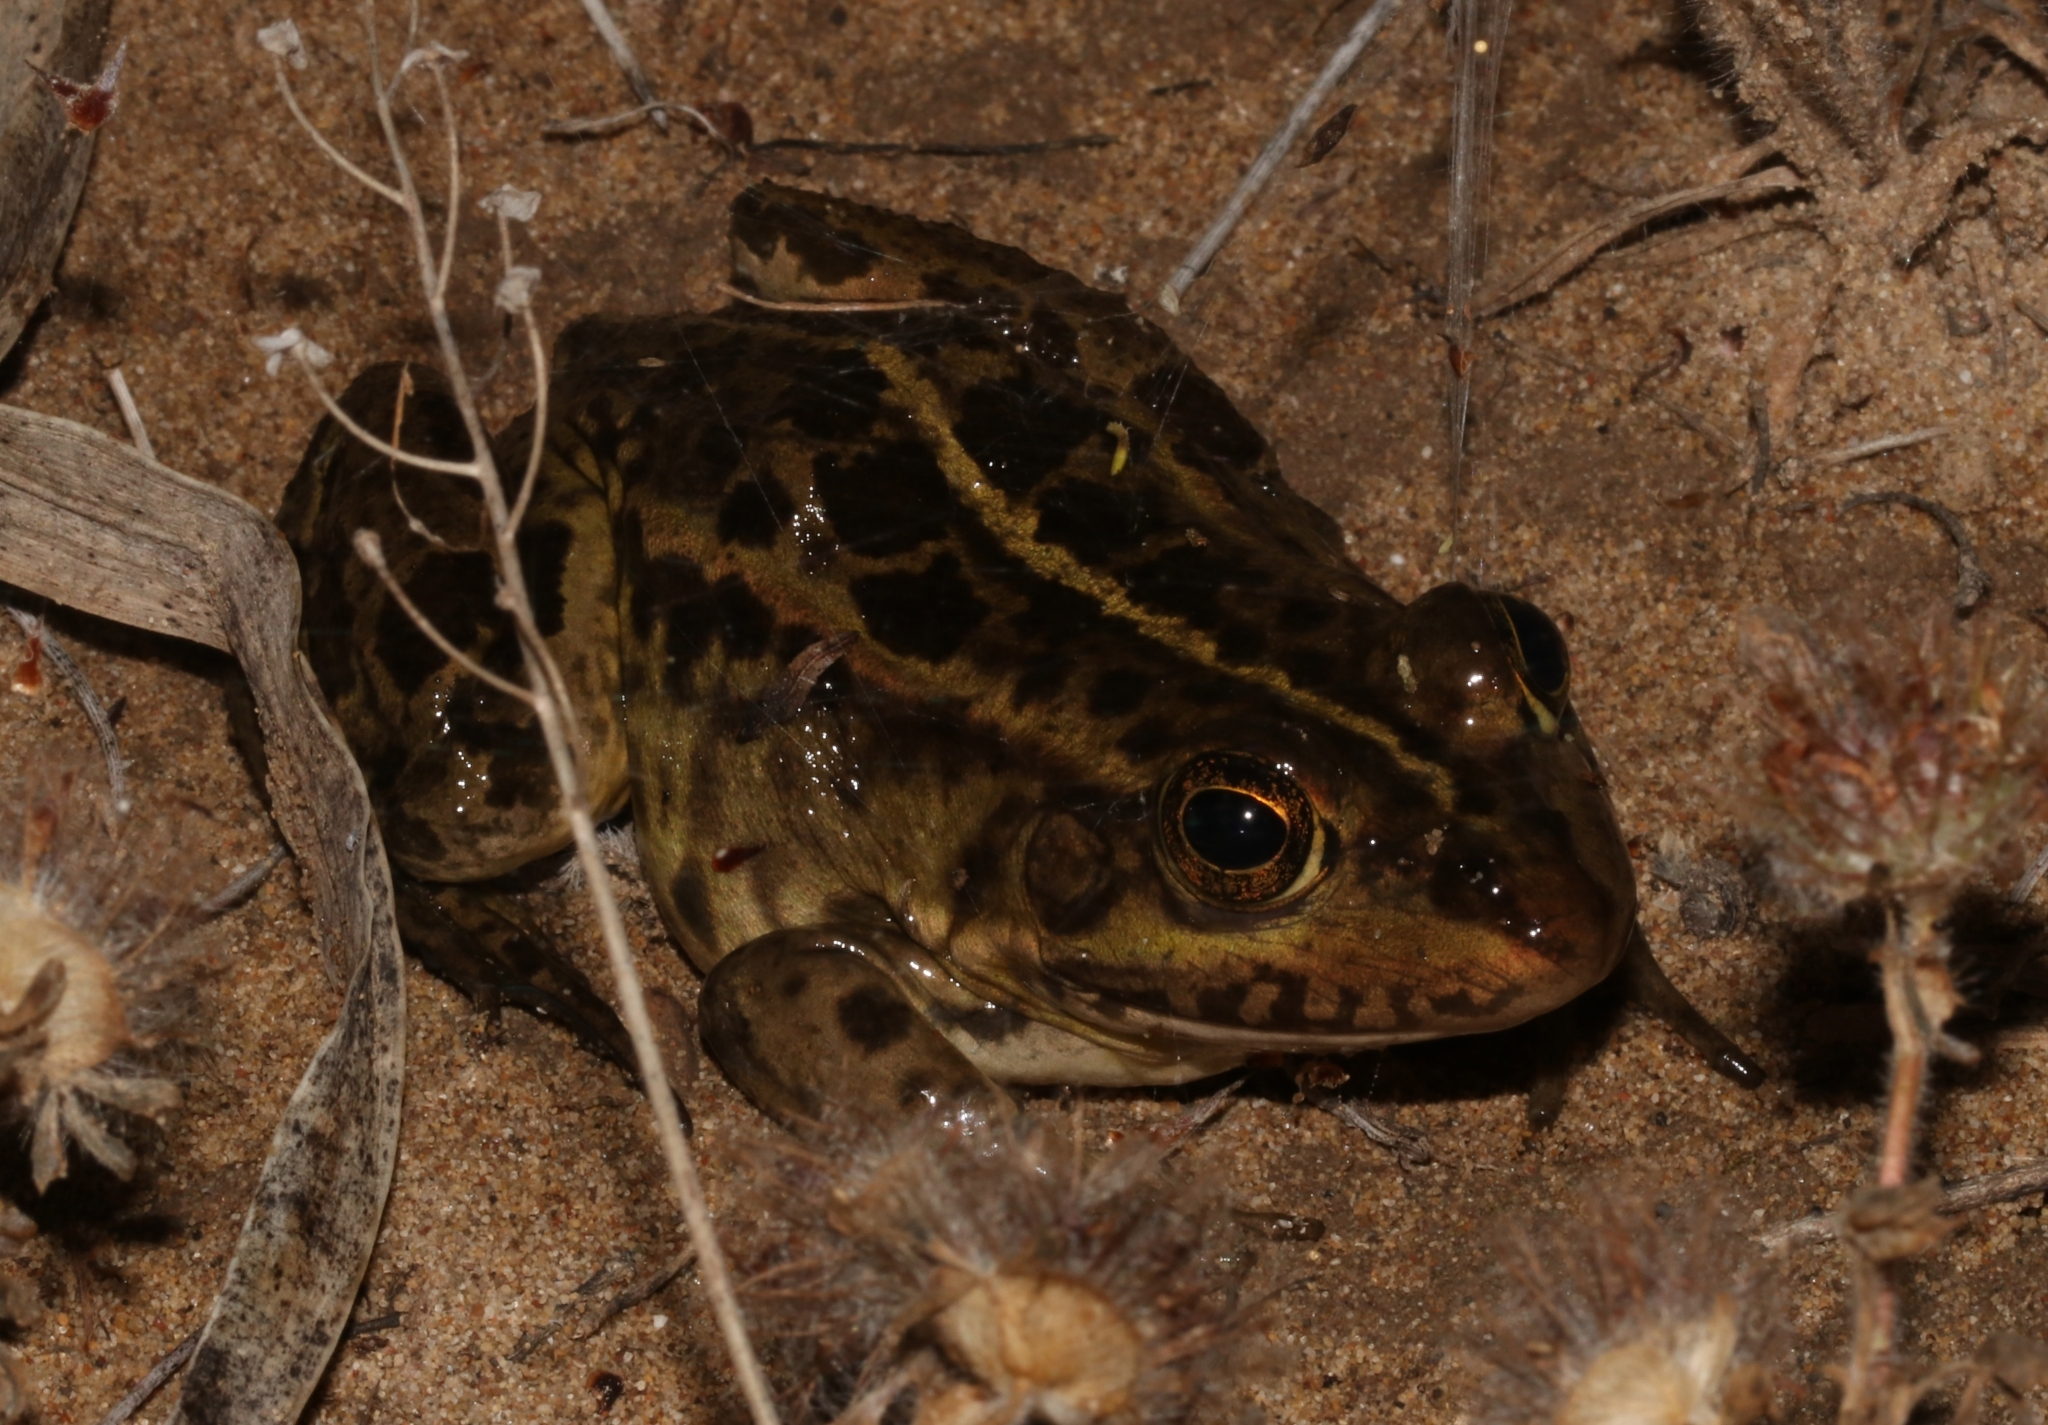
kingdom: Animalia
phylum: Chordata
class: Amphibia
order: Anura
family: Ranidae
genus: Pelophylax
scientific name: Pelophylax epeiroticus
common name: Epirus water frog
